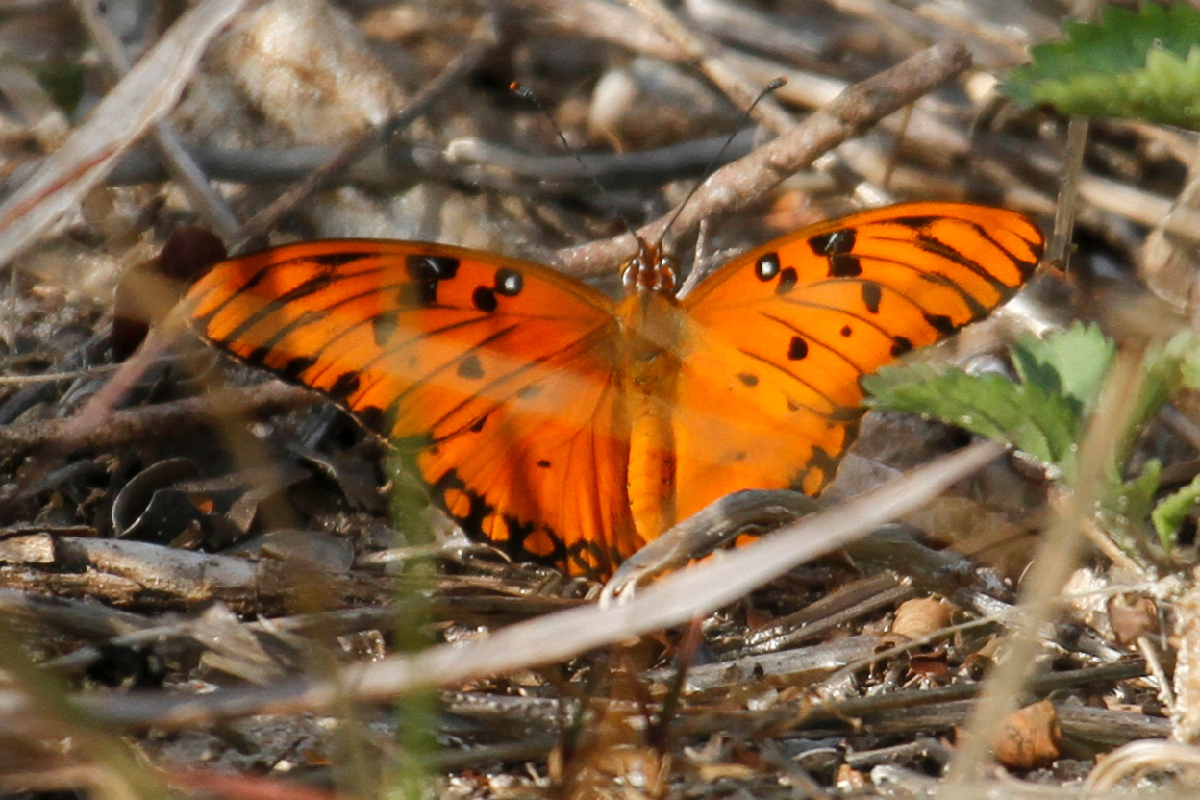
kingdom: Animalia
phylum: Arthropoda
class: Insecta
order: Lepidoptera
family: Nymphalidae
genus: Dione
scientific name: Dione vanillae
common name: Gulf fritillary
